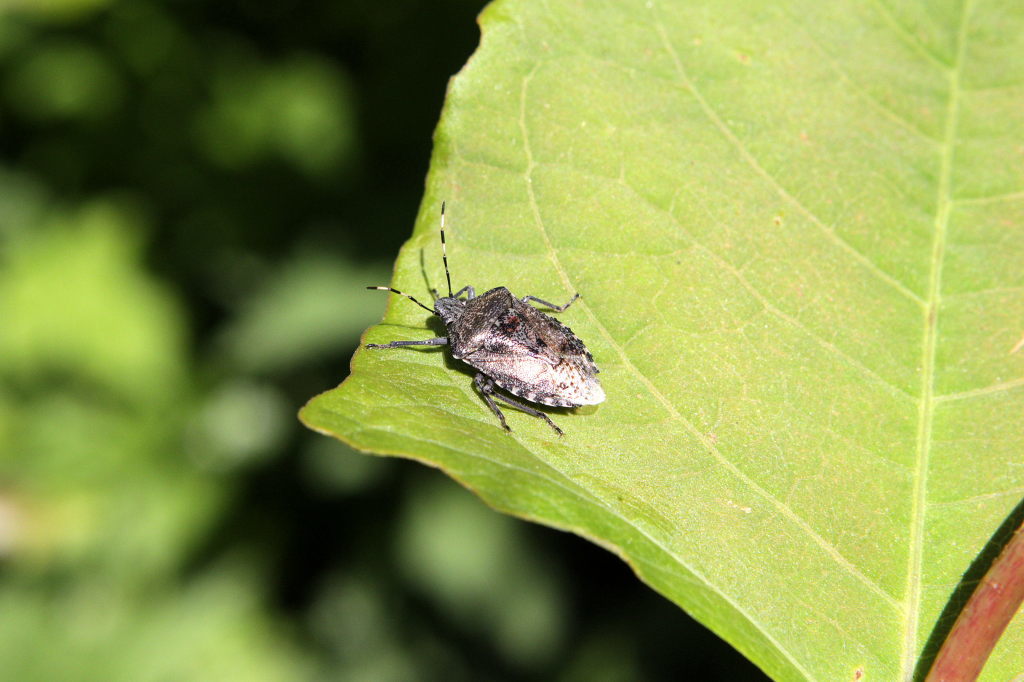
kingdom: Animalia
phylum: Arthropoda
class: Insecta
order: Hemiptera
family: Pentatomidae
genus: Rhaphigaster
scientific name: Rhaphigaster nebulosa
